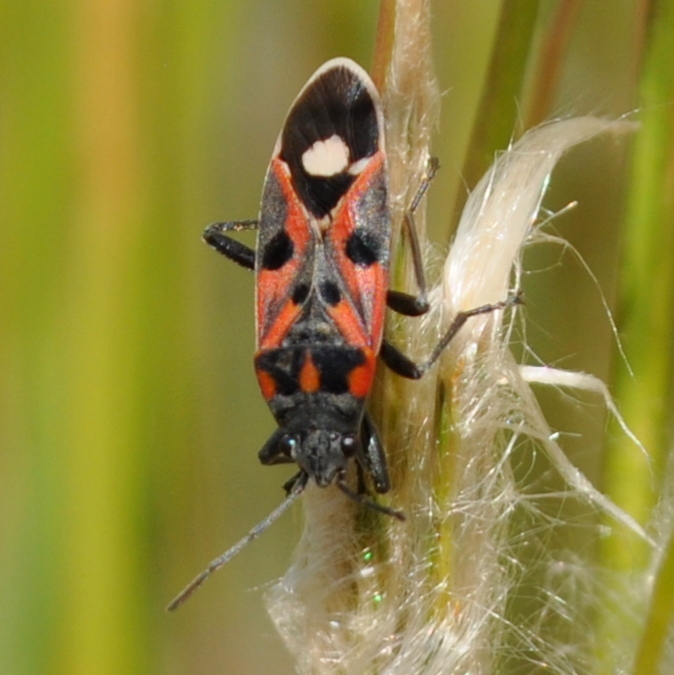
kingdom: Animalia
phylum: Arthropoda
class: Insecta
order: Hemiptera
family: Lygaeidae
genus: Lygaeus
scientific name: Lygaeus alboornatus
